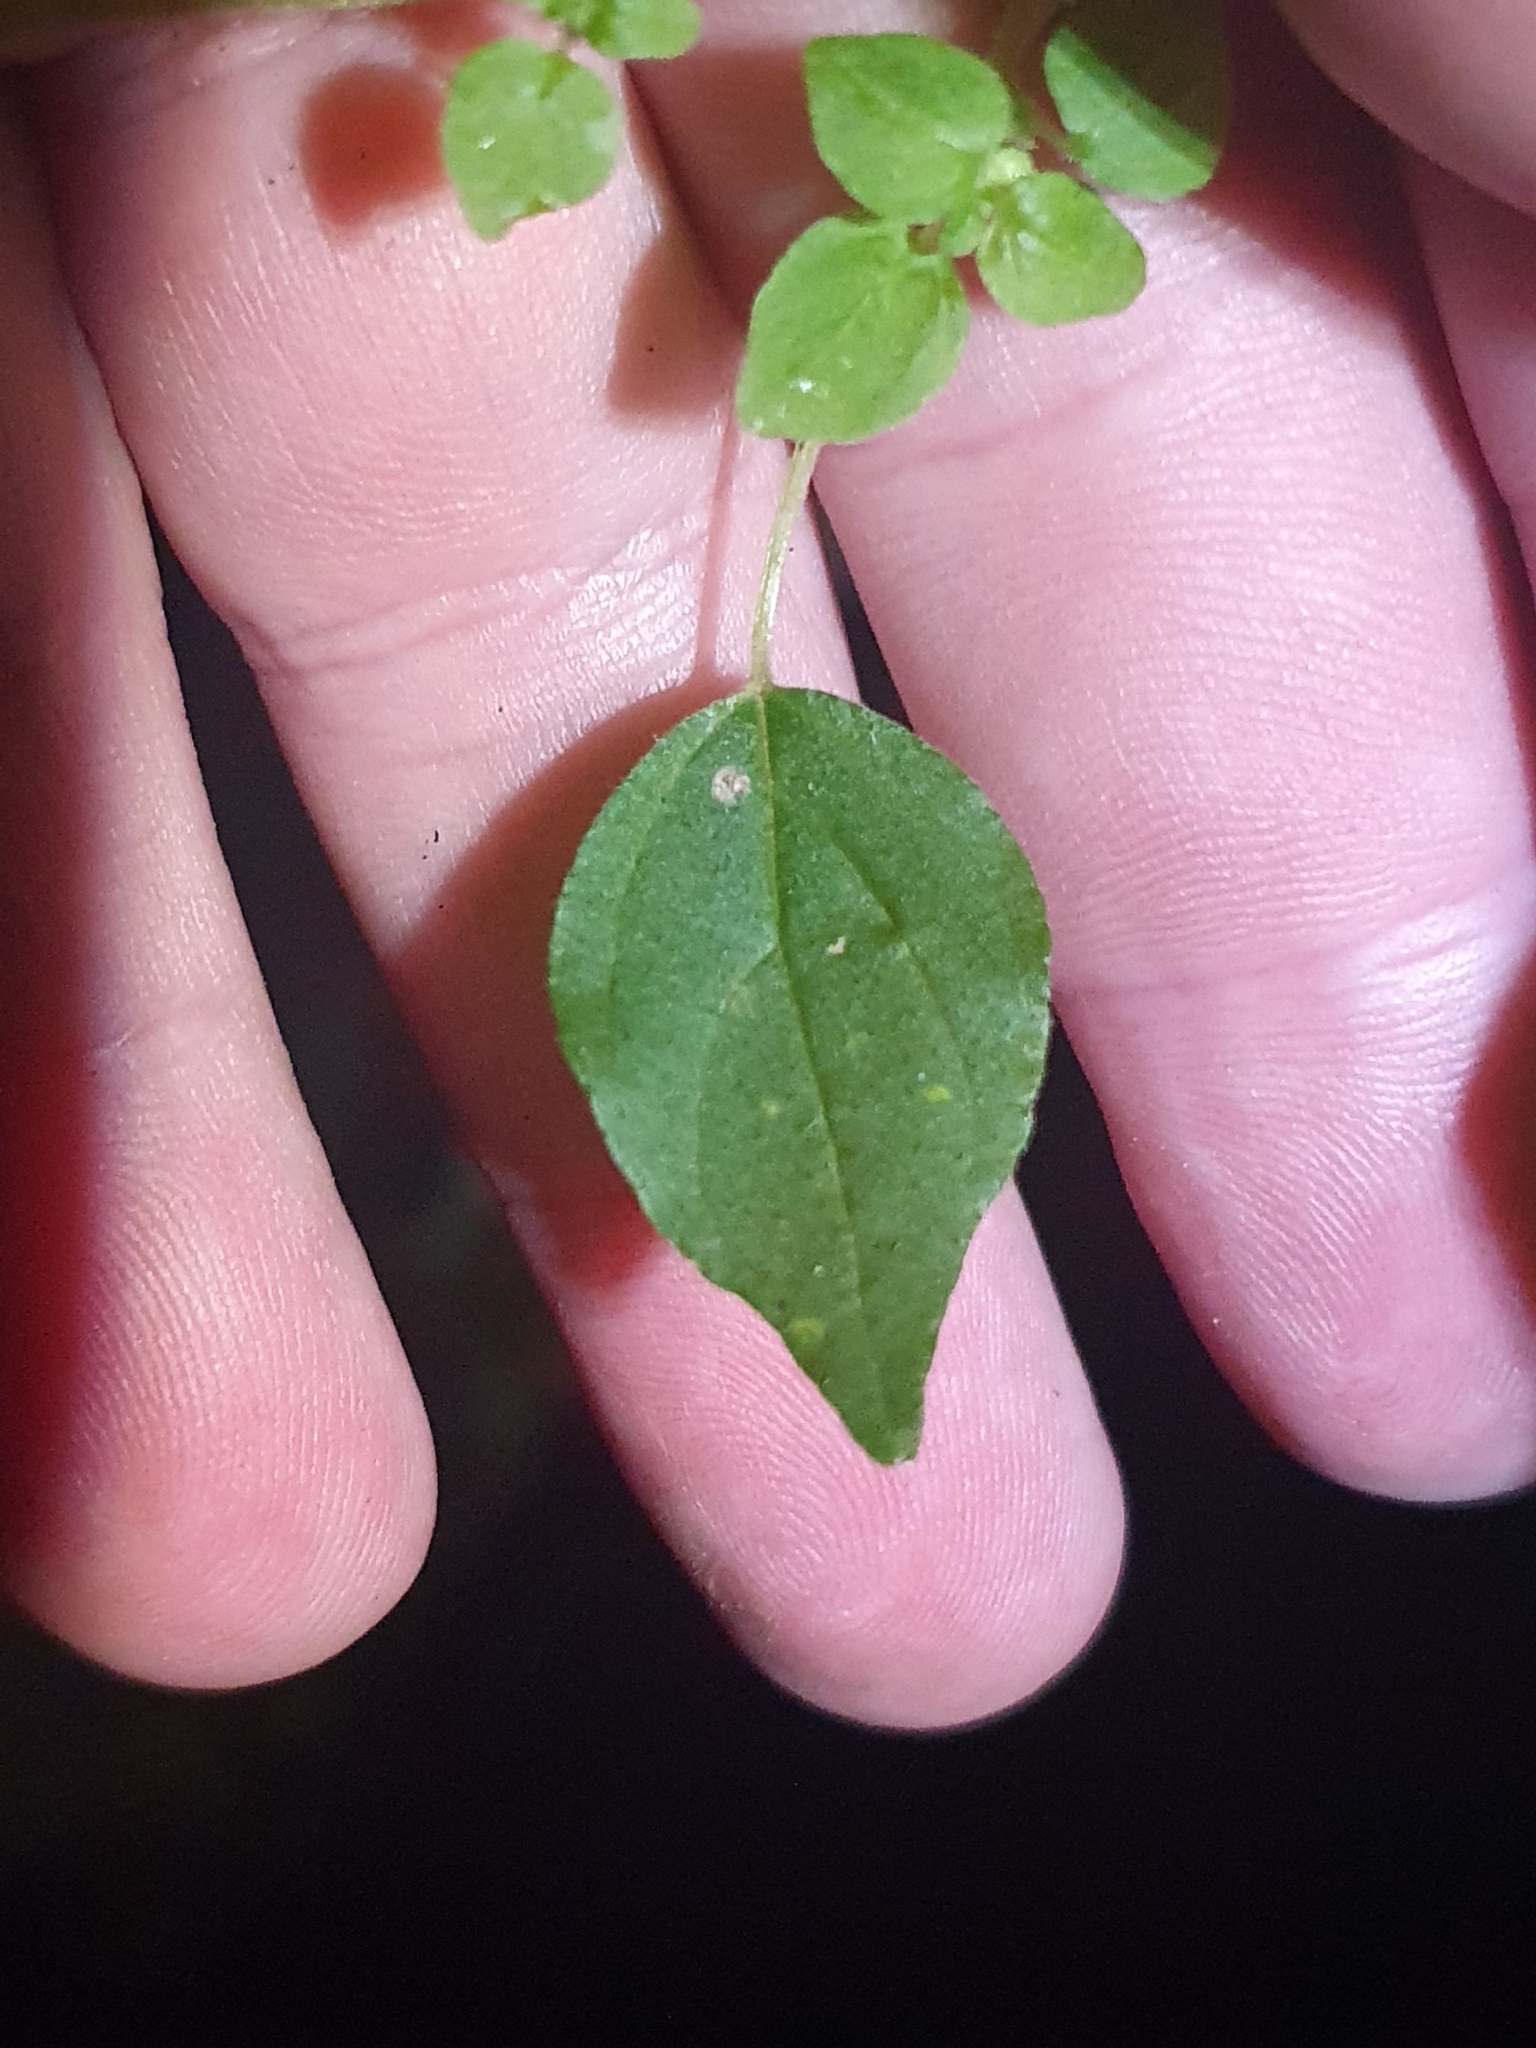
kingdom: Plantae
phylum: Tracheophyta
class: Magnoliopsida
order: Rosales
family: Urticaceae
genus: Parietaria
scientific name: Parietaria debilis
